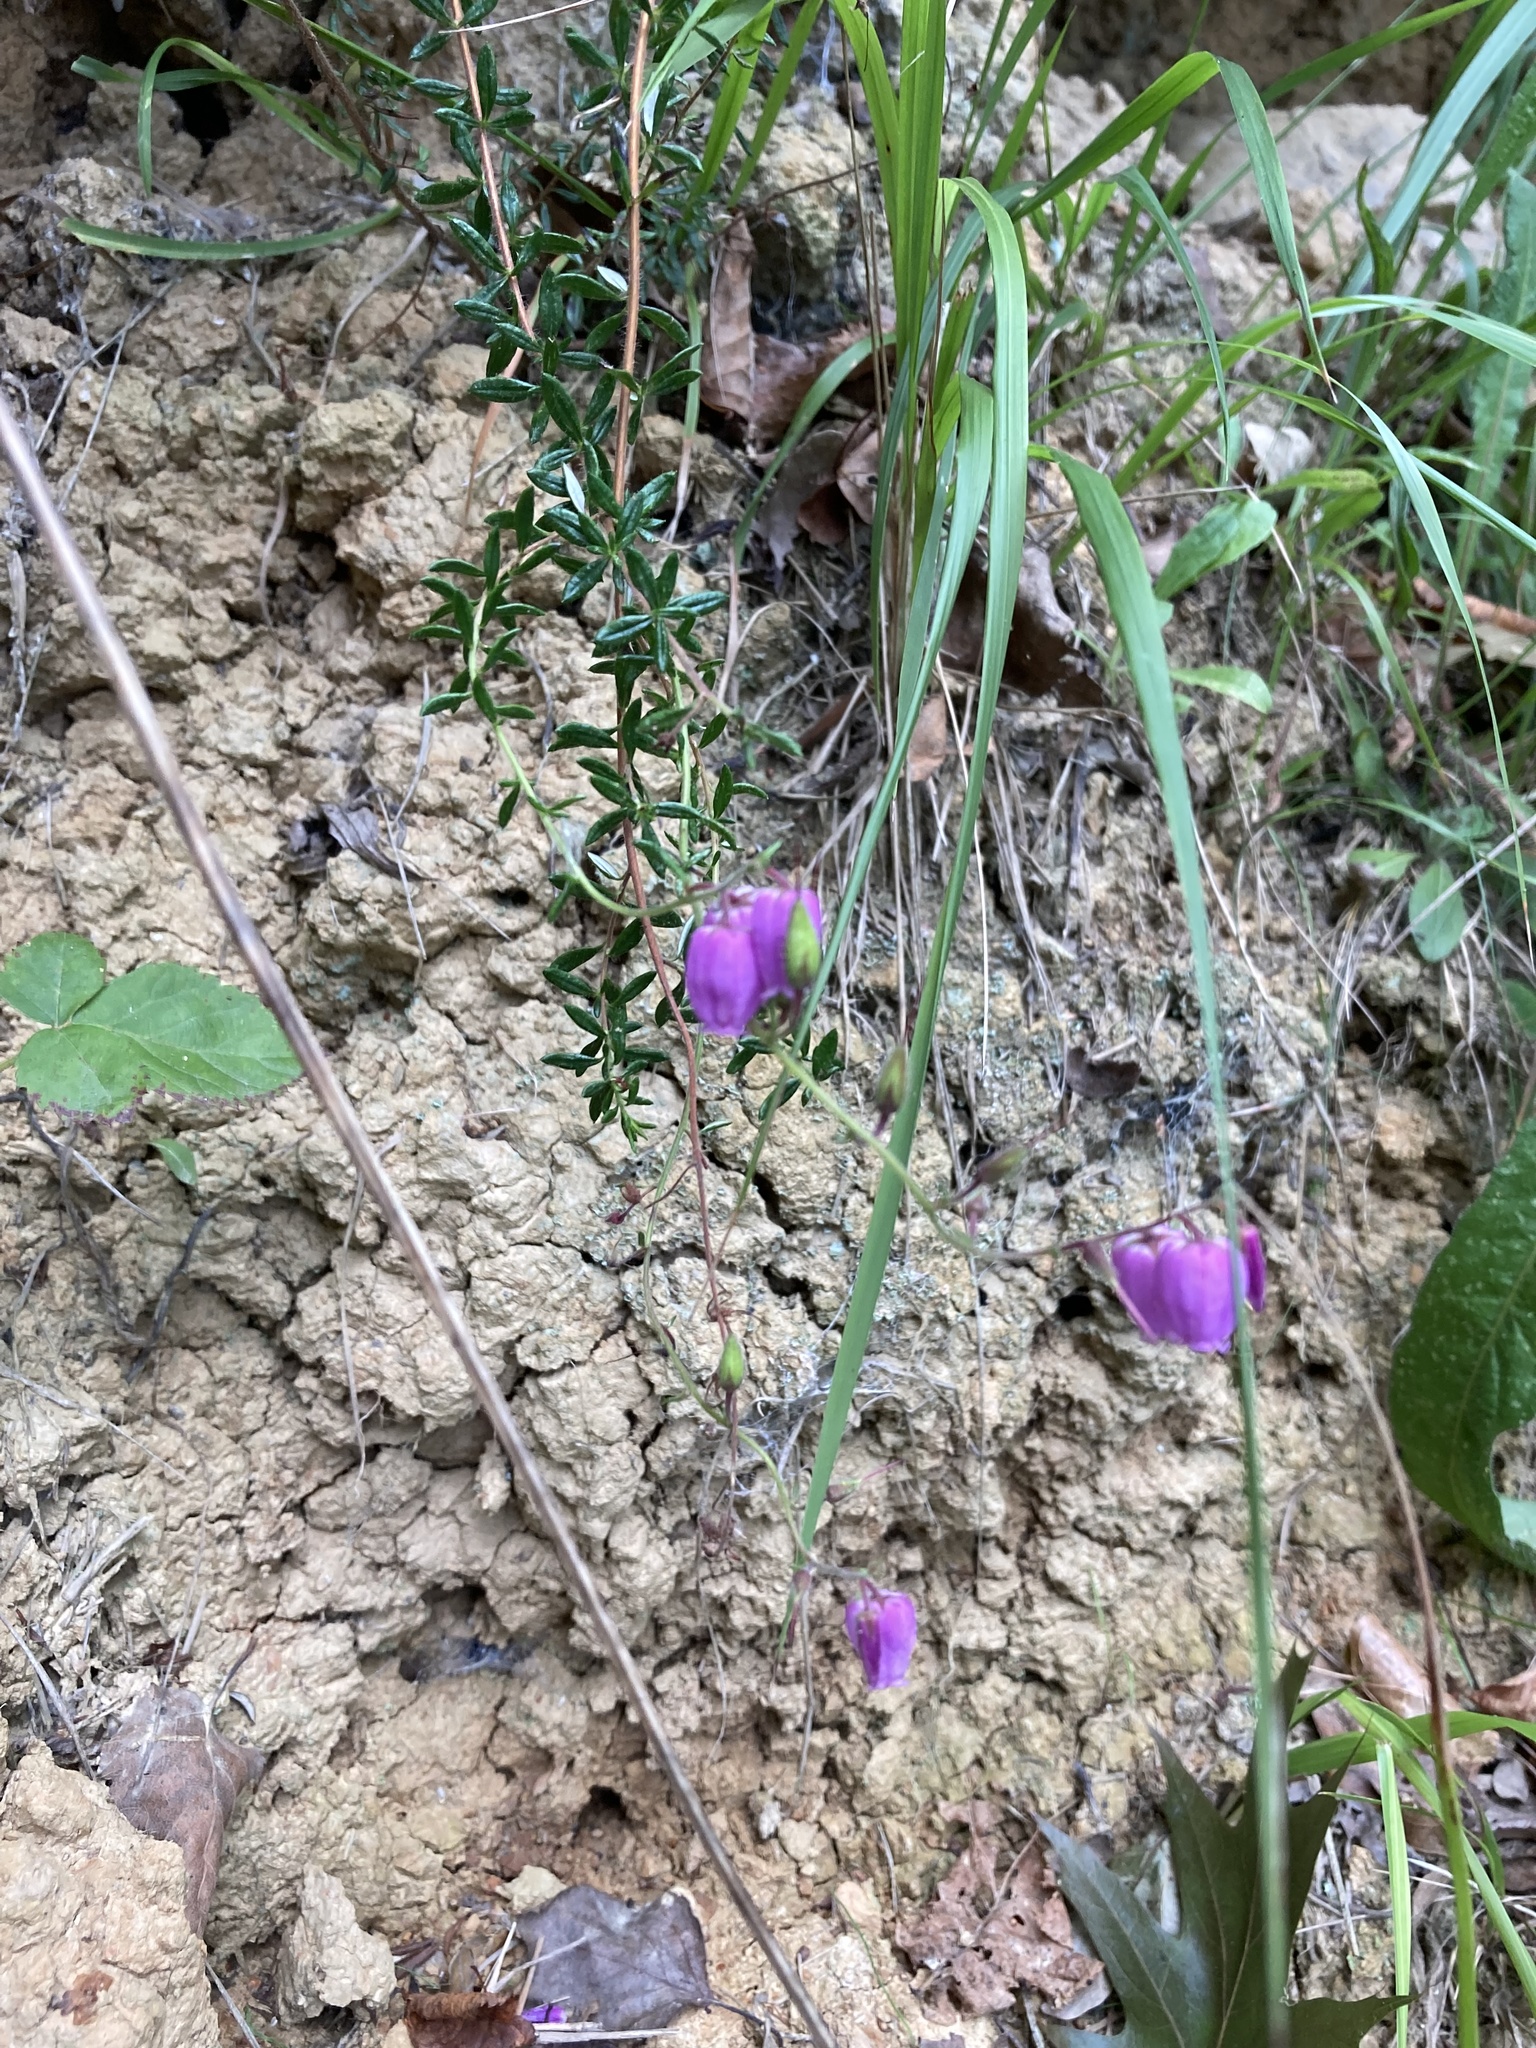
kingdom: Plantae
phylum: Tracheophyta
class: Magnoliopsida
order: Ericales
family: Ericaceae
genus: Daboecia
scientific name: Daboecia cantabrica
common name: St. dabeoc's-heath
